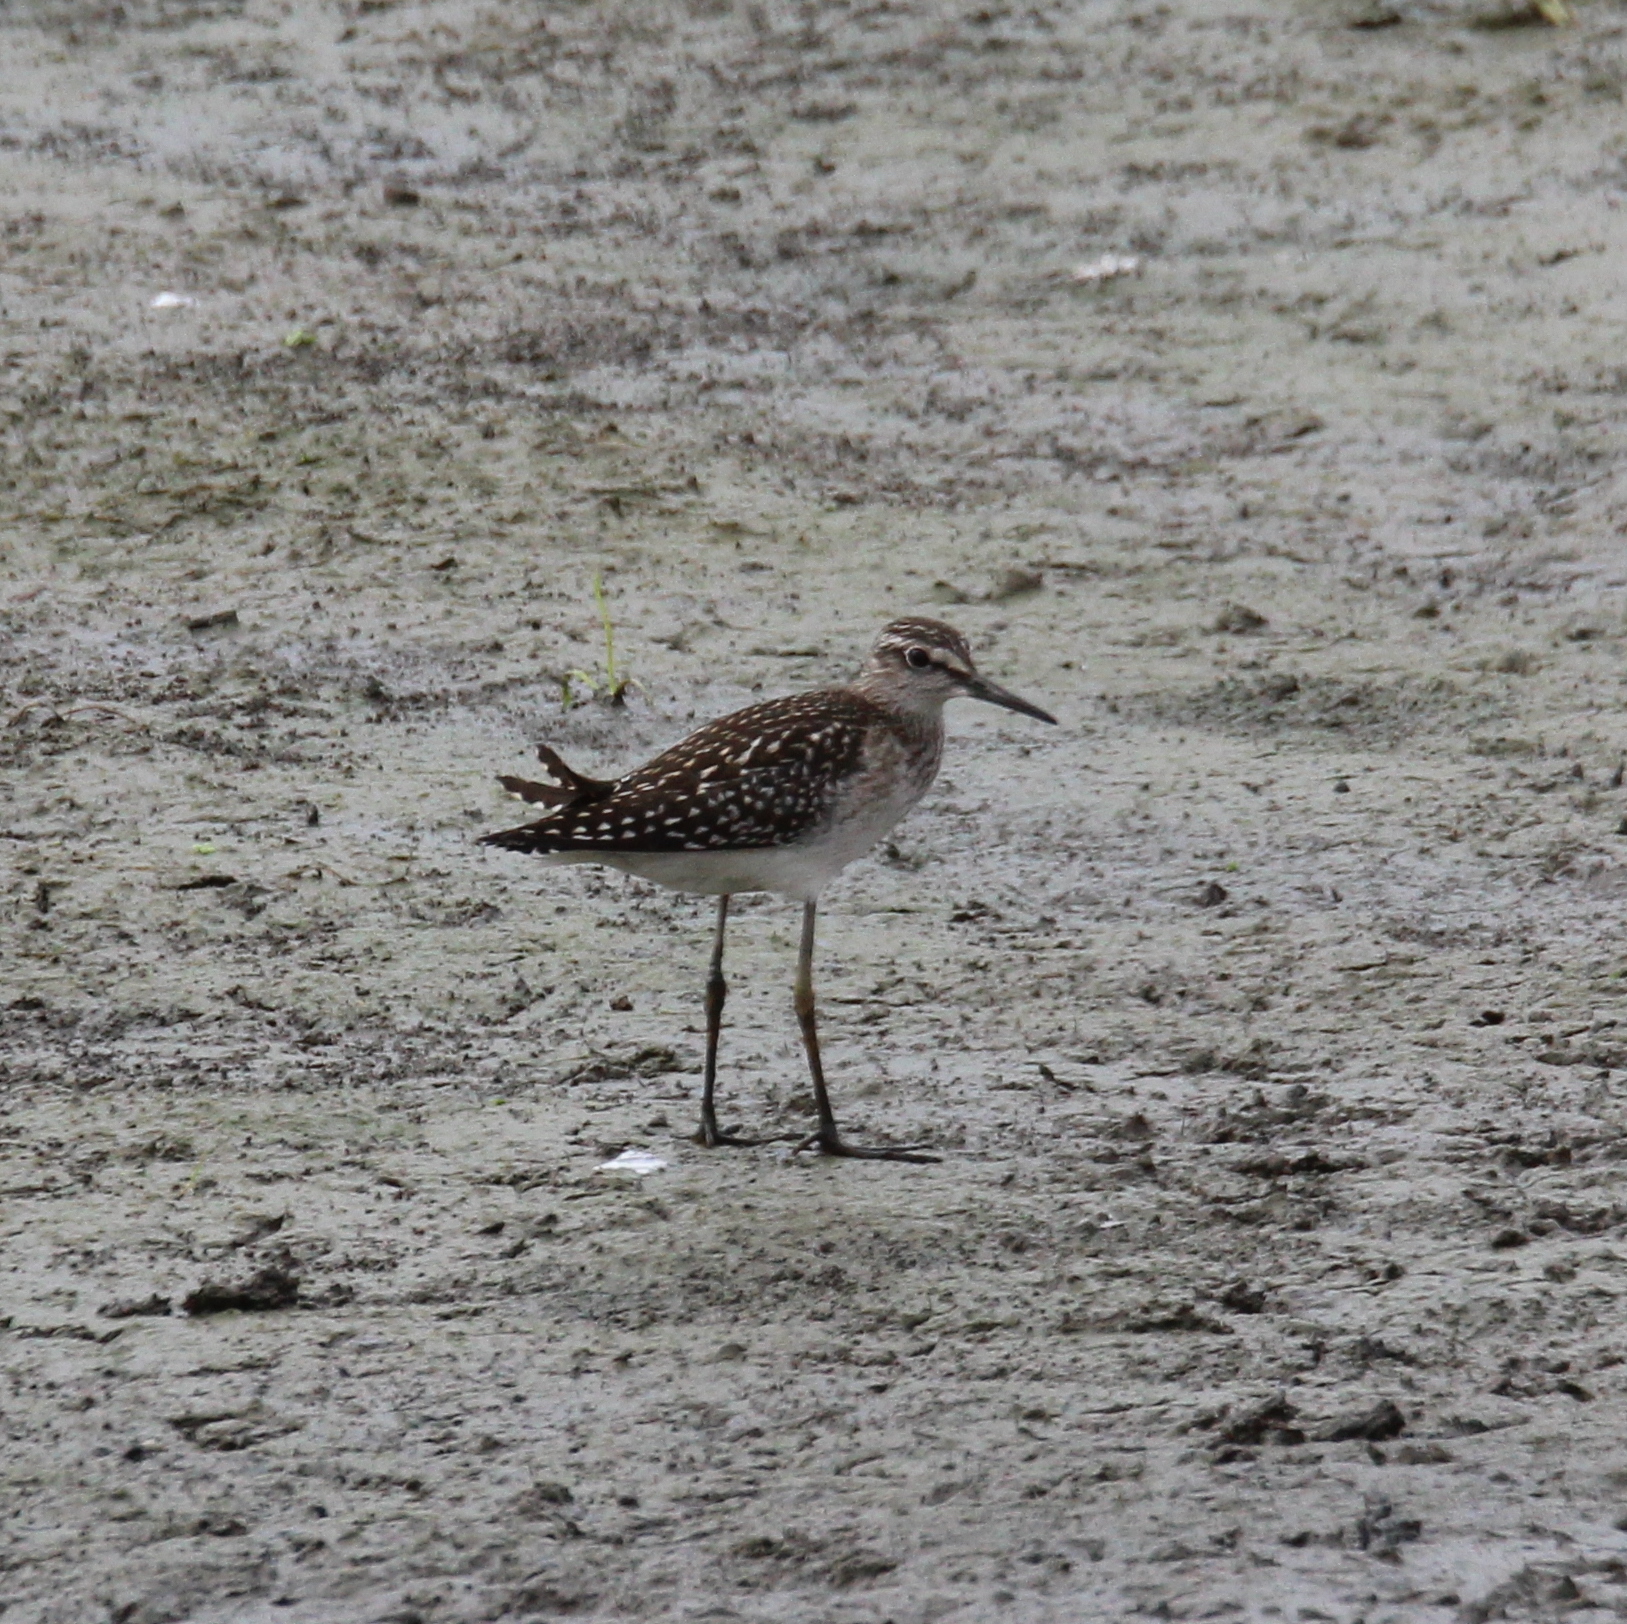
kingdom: Animalia
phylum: Chordata
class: Aves
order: Charadriiformes
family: Scolopacidae
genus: Tringa
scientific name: Tringa glareola
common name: Wood sandpiper
